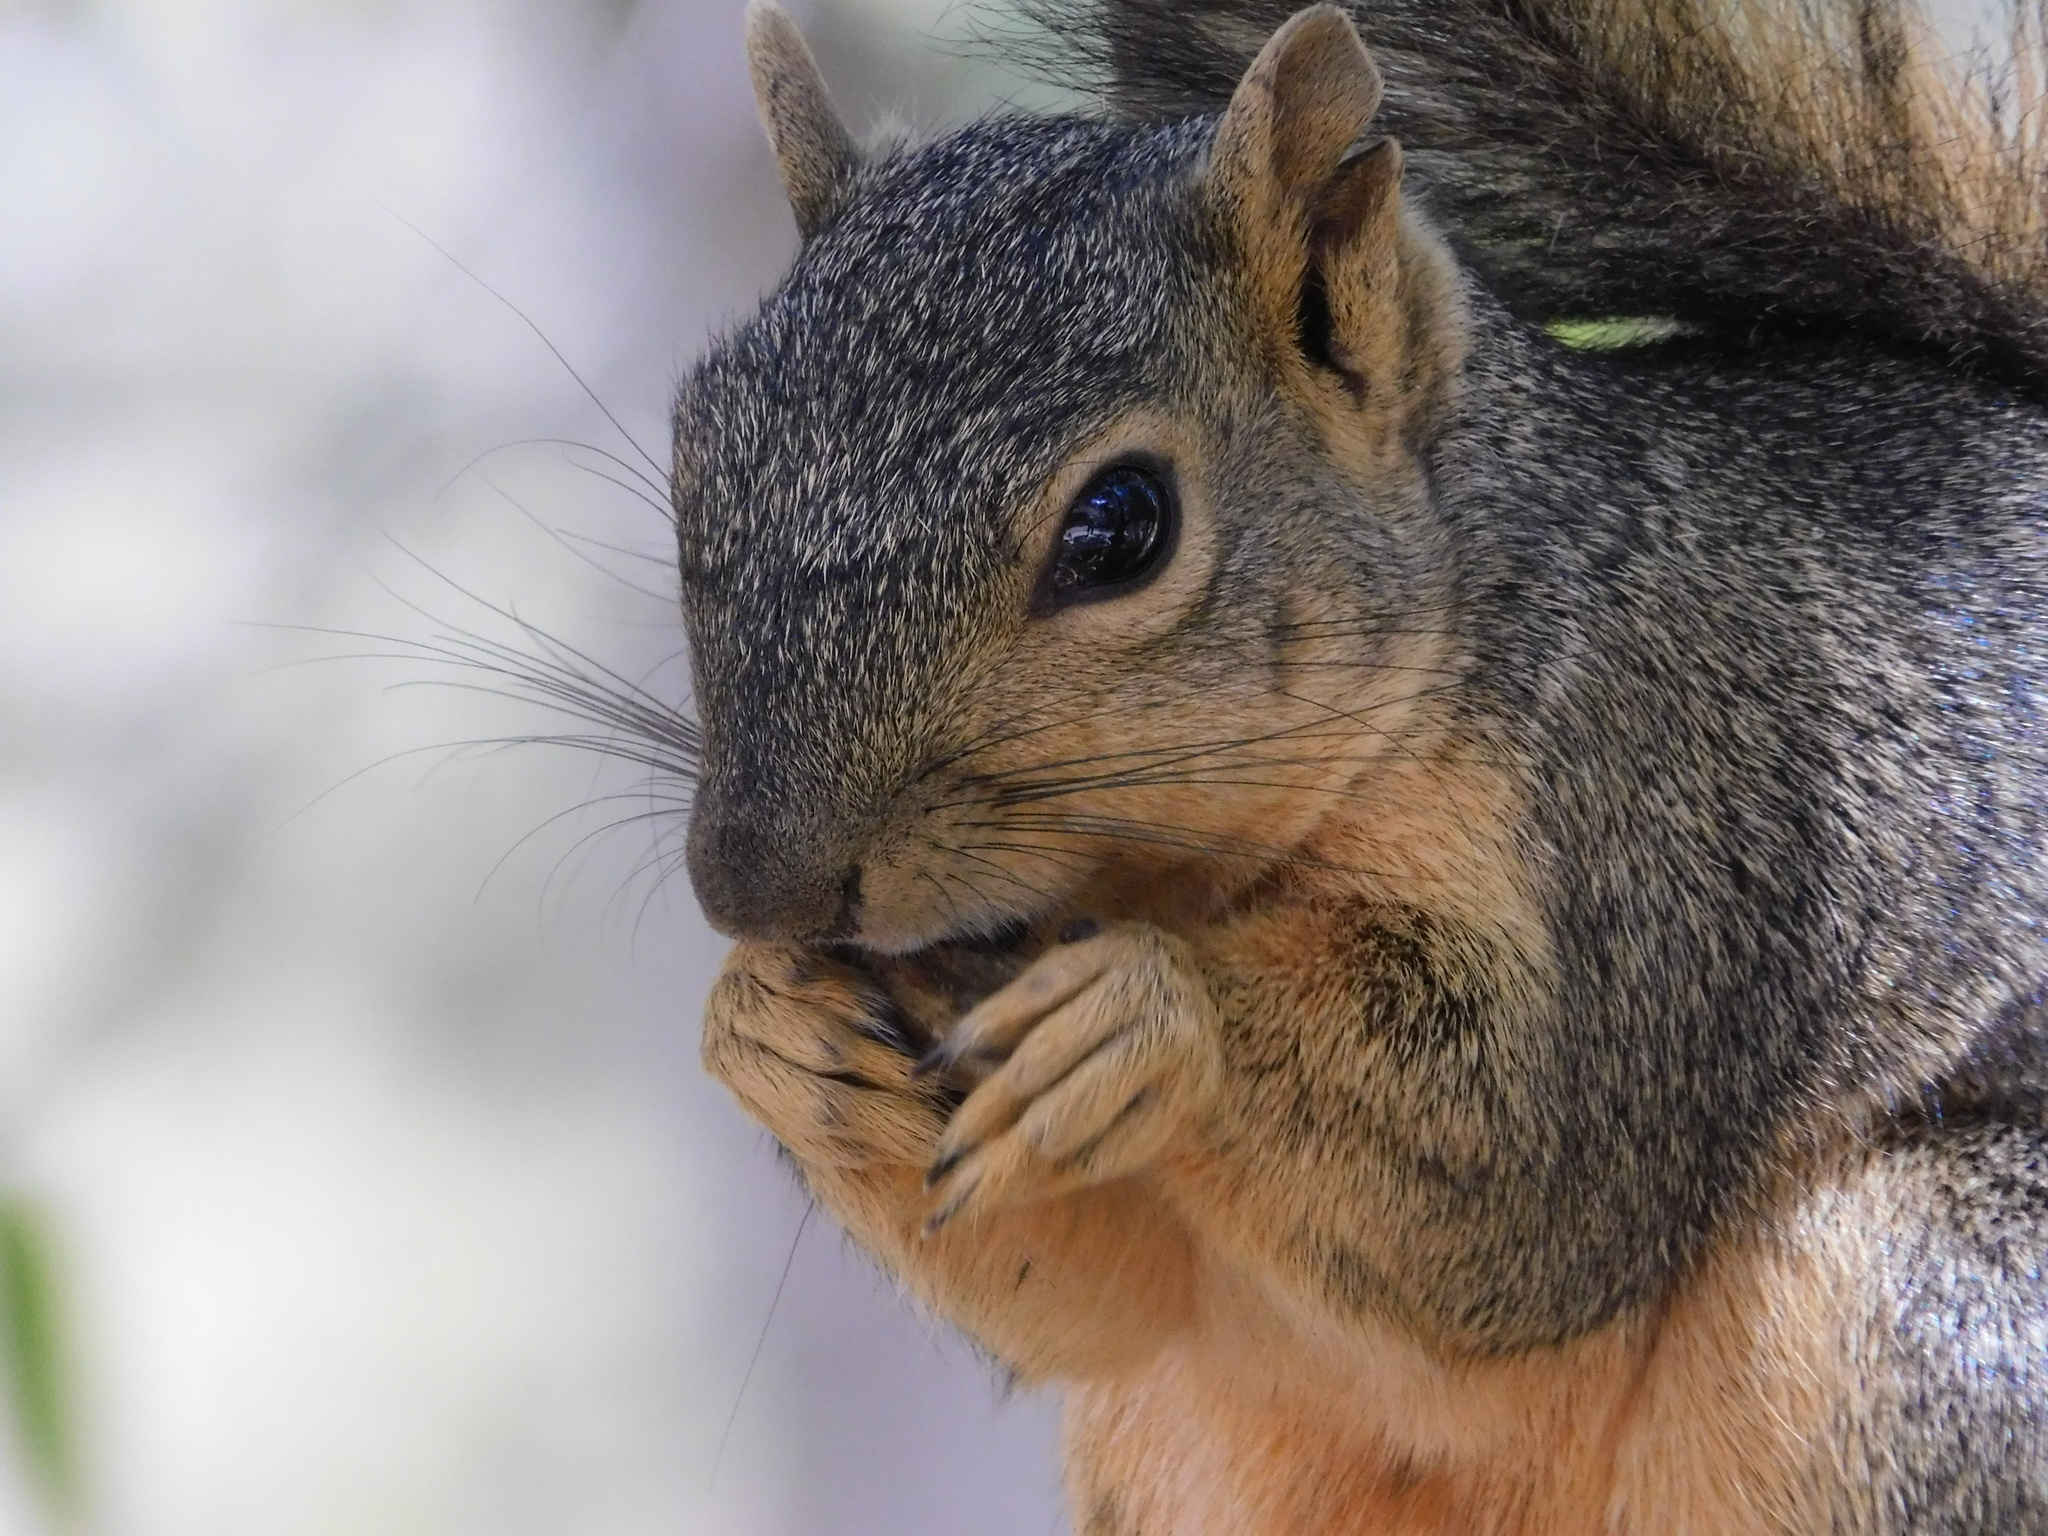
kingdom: Animalia
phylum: Chordata
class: Mammalia
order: Rodentia
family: Sciuridae
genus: Sciurus
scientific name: Sciurus niger
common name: Fox squirrel
